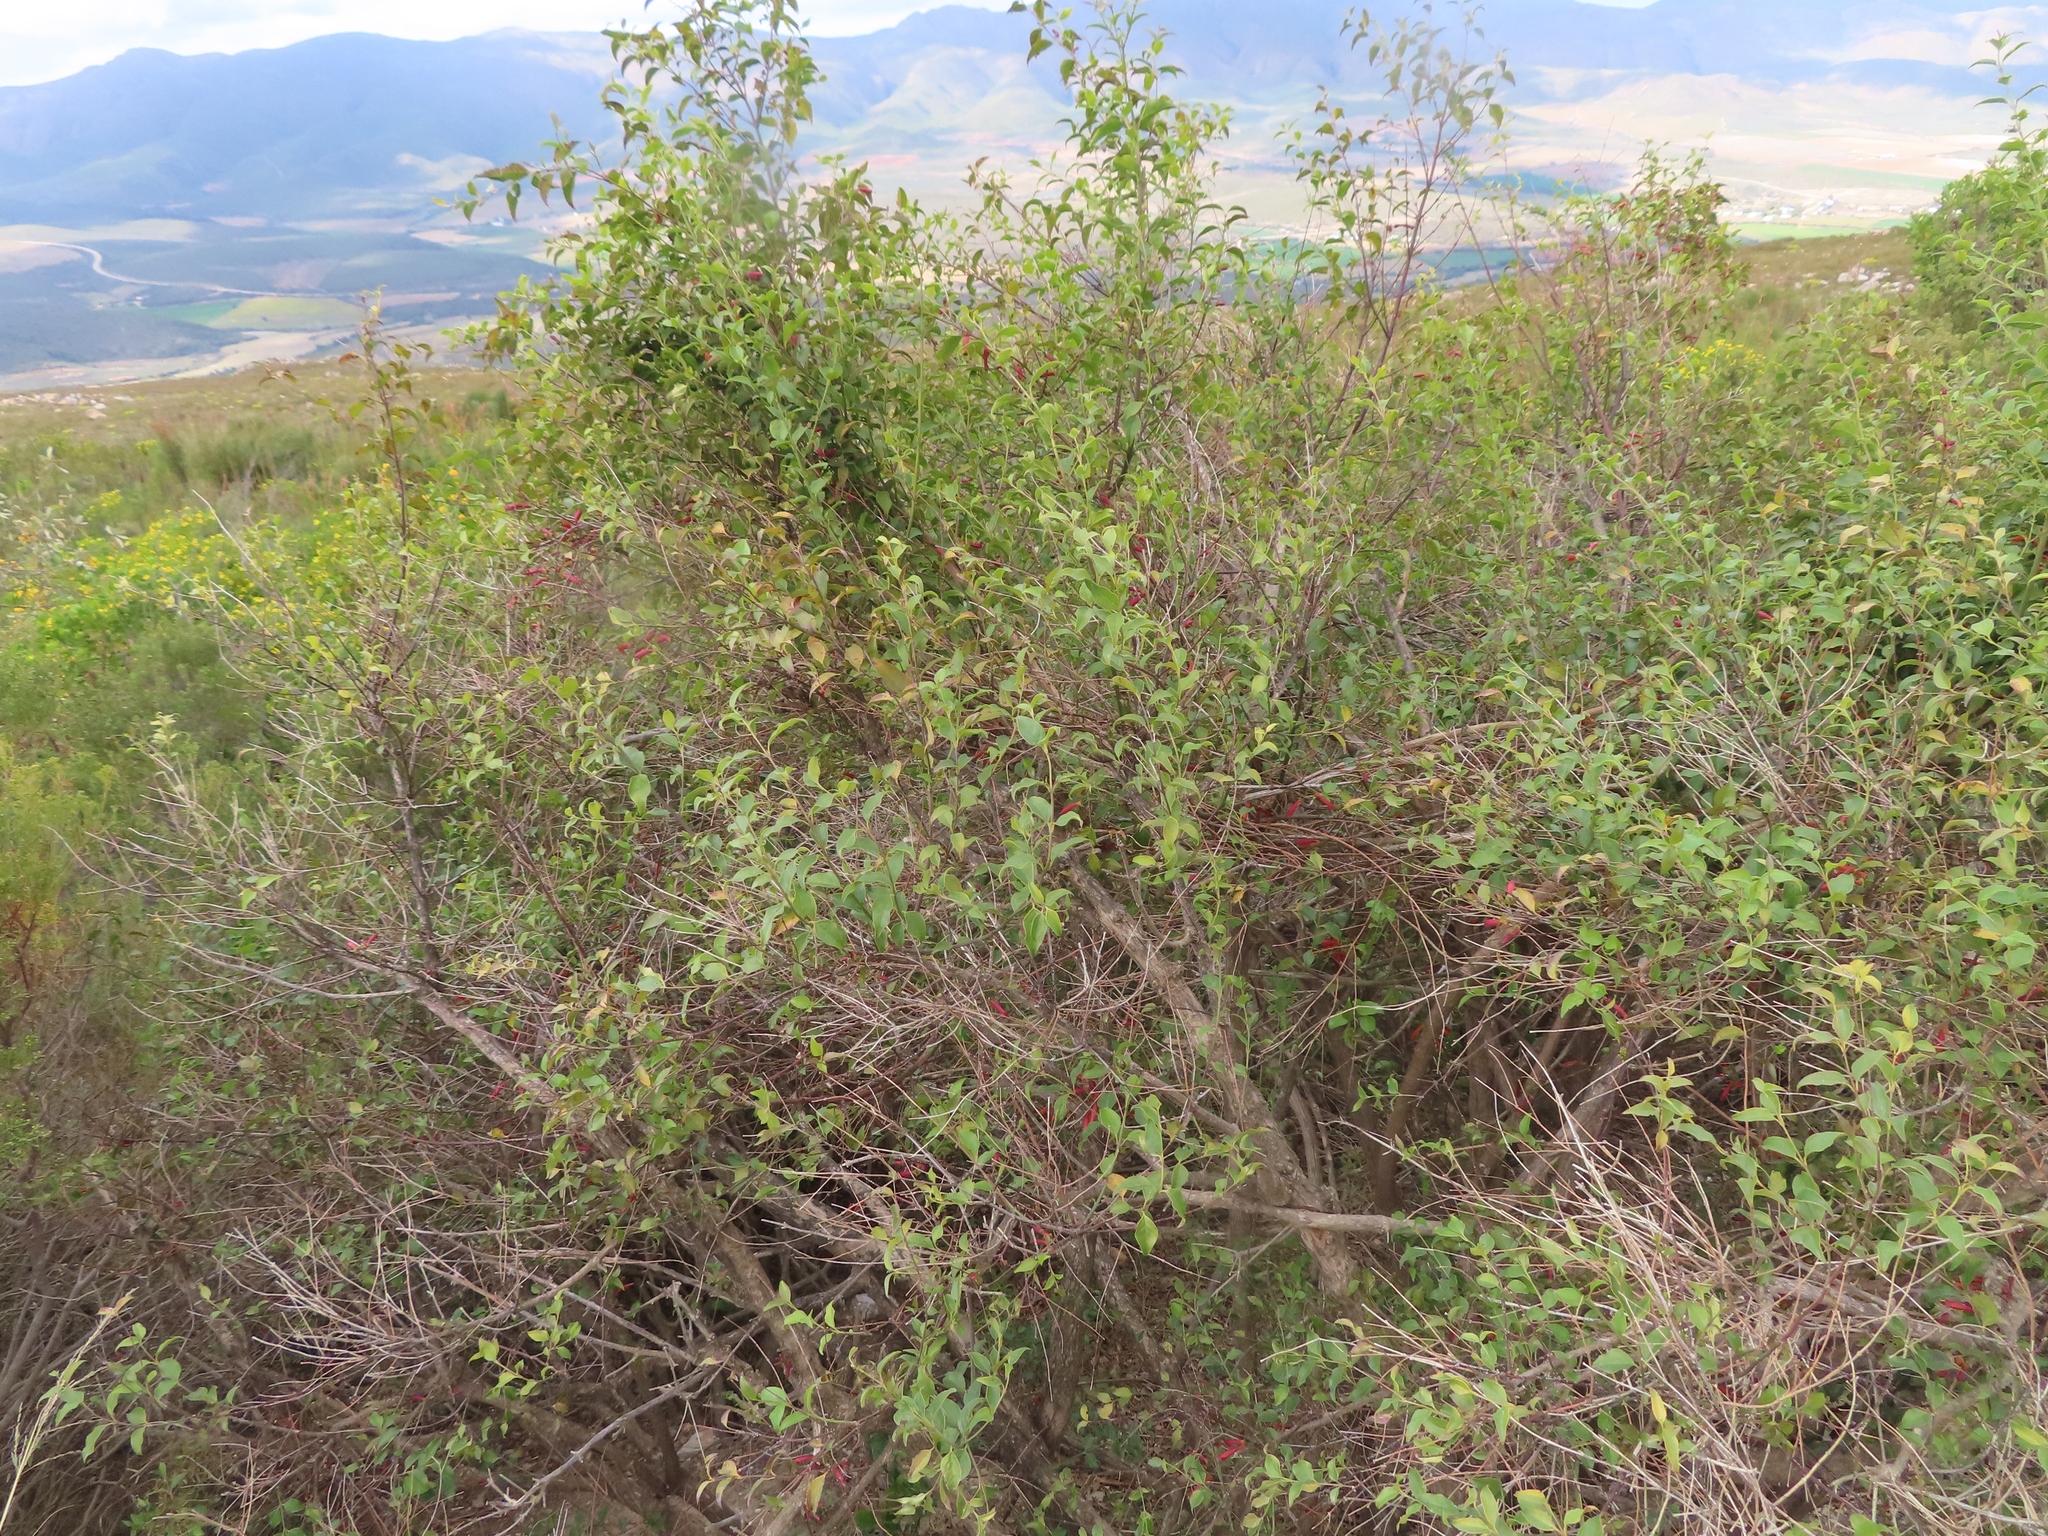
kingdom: Plantae
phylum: Tracheophyta
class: Magnoliopsida
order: Lamiales
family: Stilbaceae
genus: Halleria
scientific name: Halleria lucida
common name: Tree fuschia
